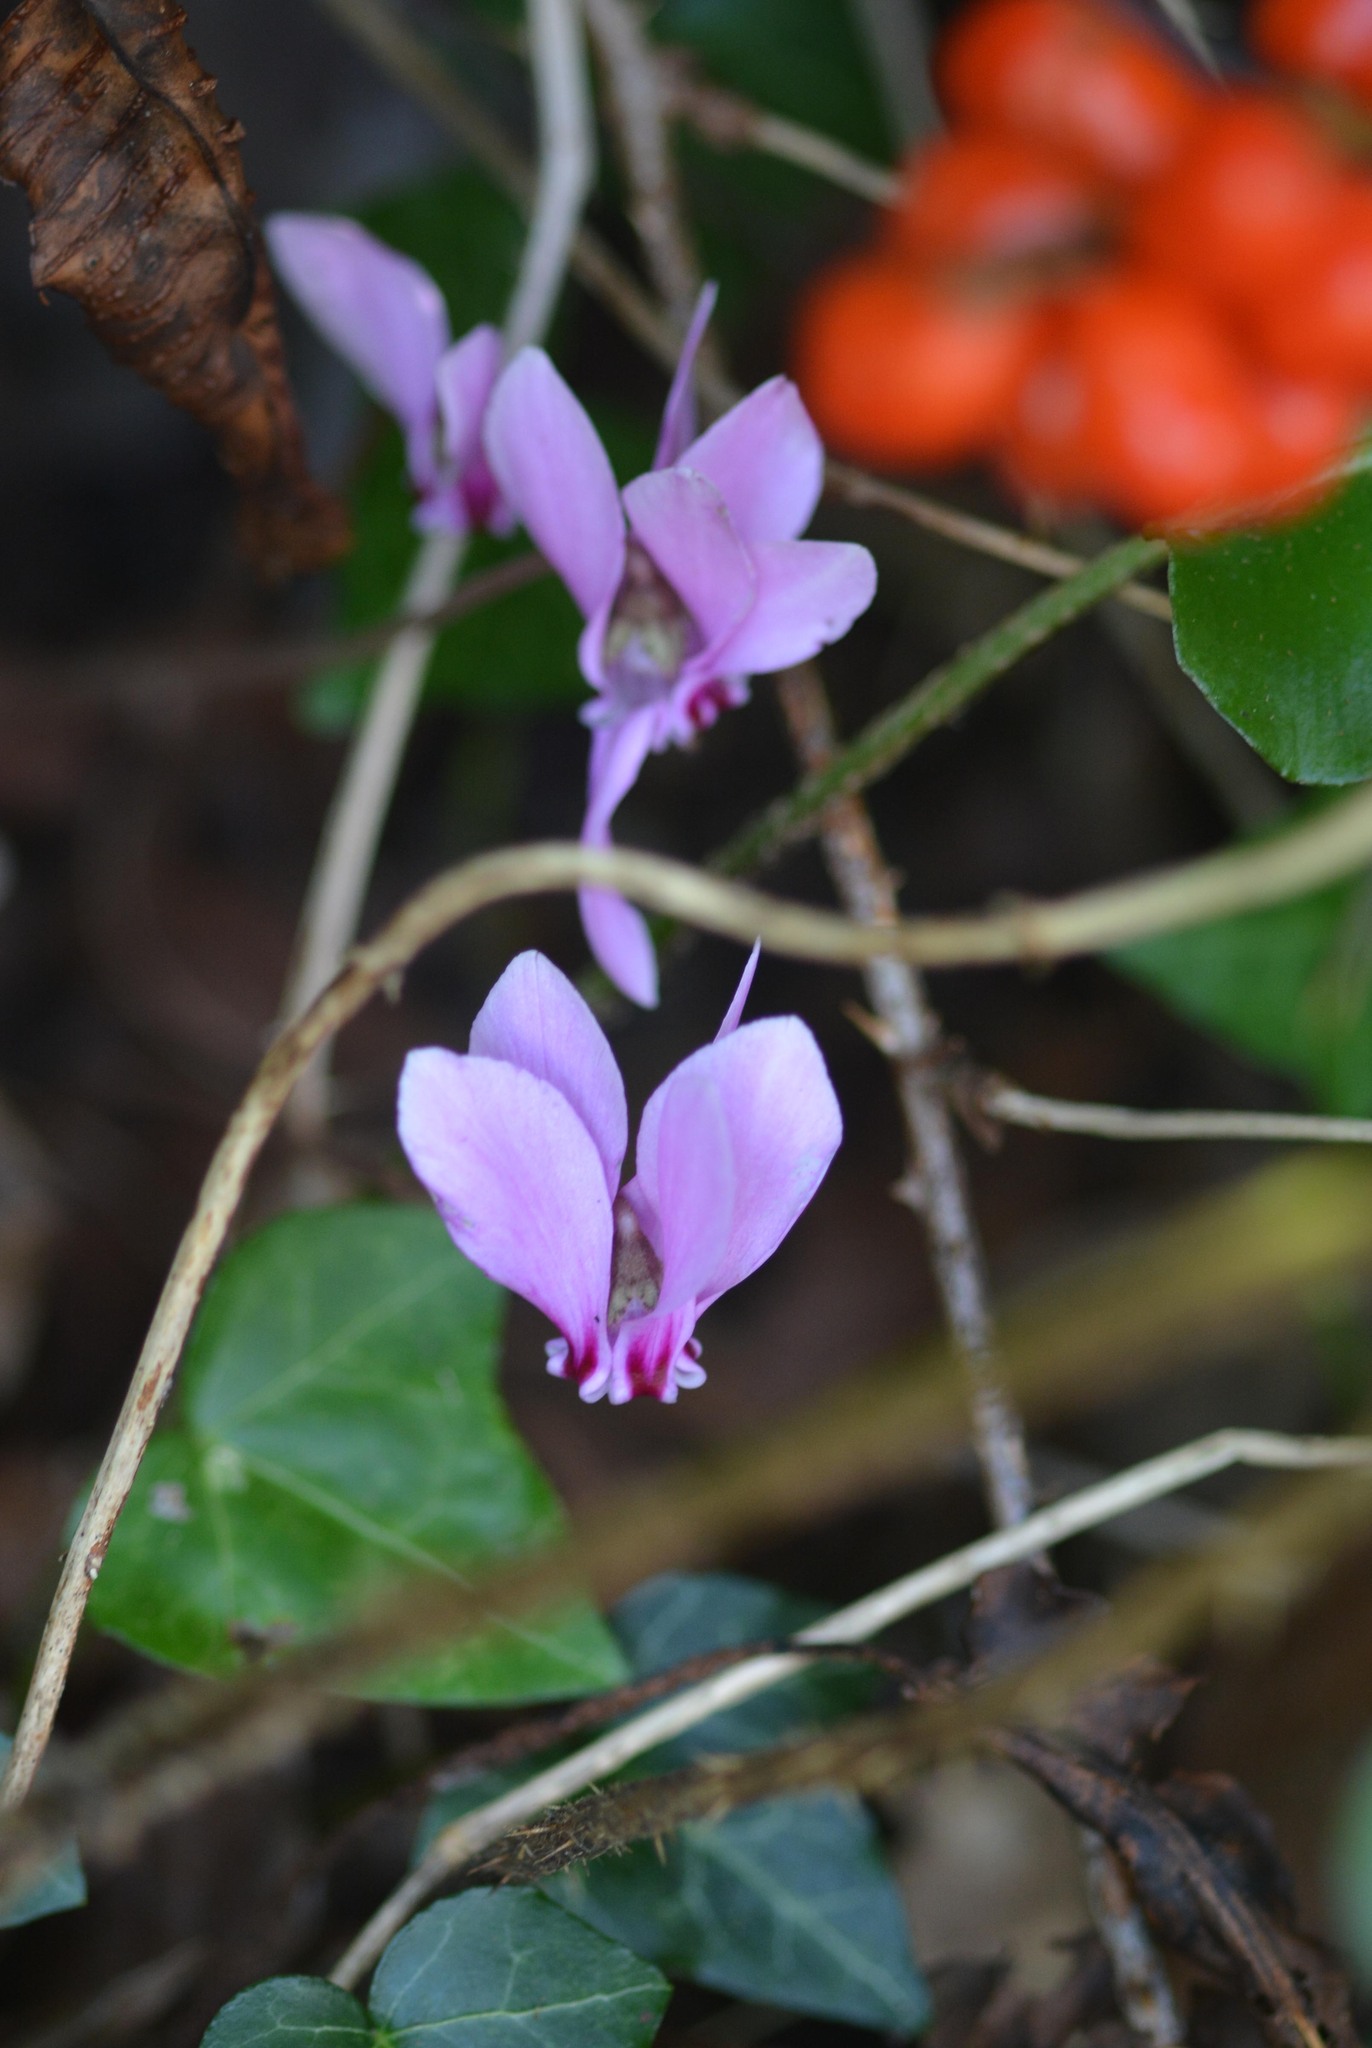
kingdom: Plantae
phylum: Tracheophyta
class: Magnoliopsida
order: Ericales
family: Primulaceae
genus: Cyclamen
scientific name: Cyclamen hederifolium
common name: Sowbread
